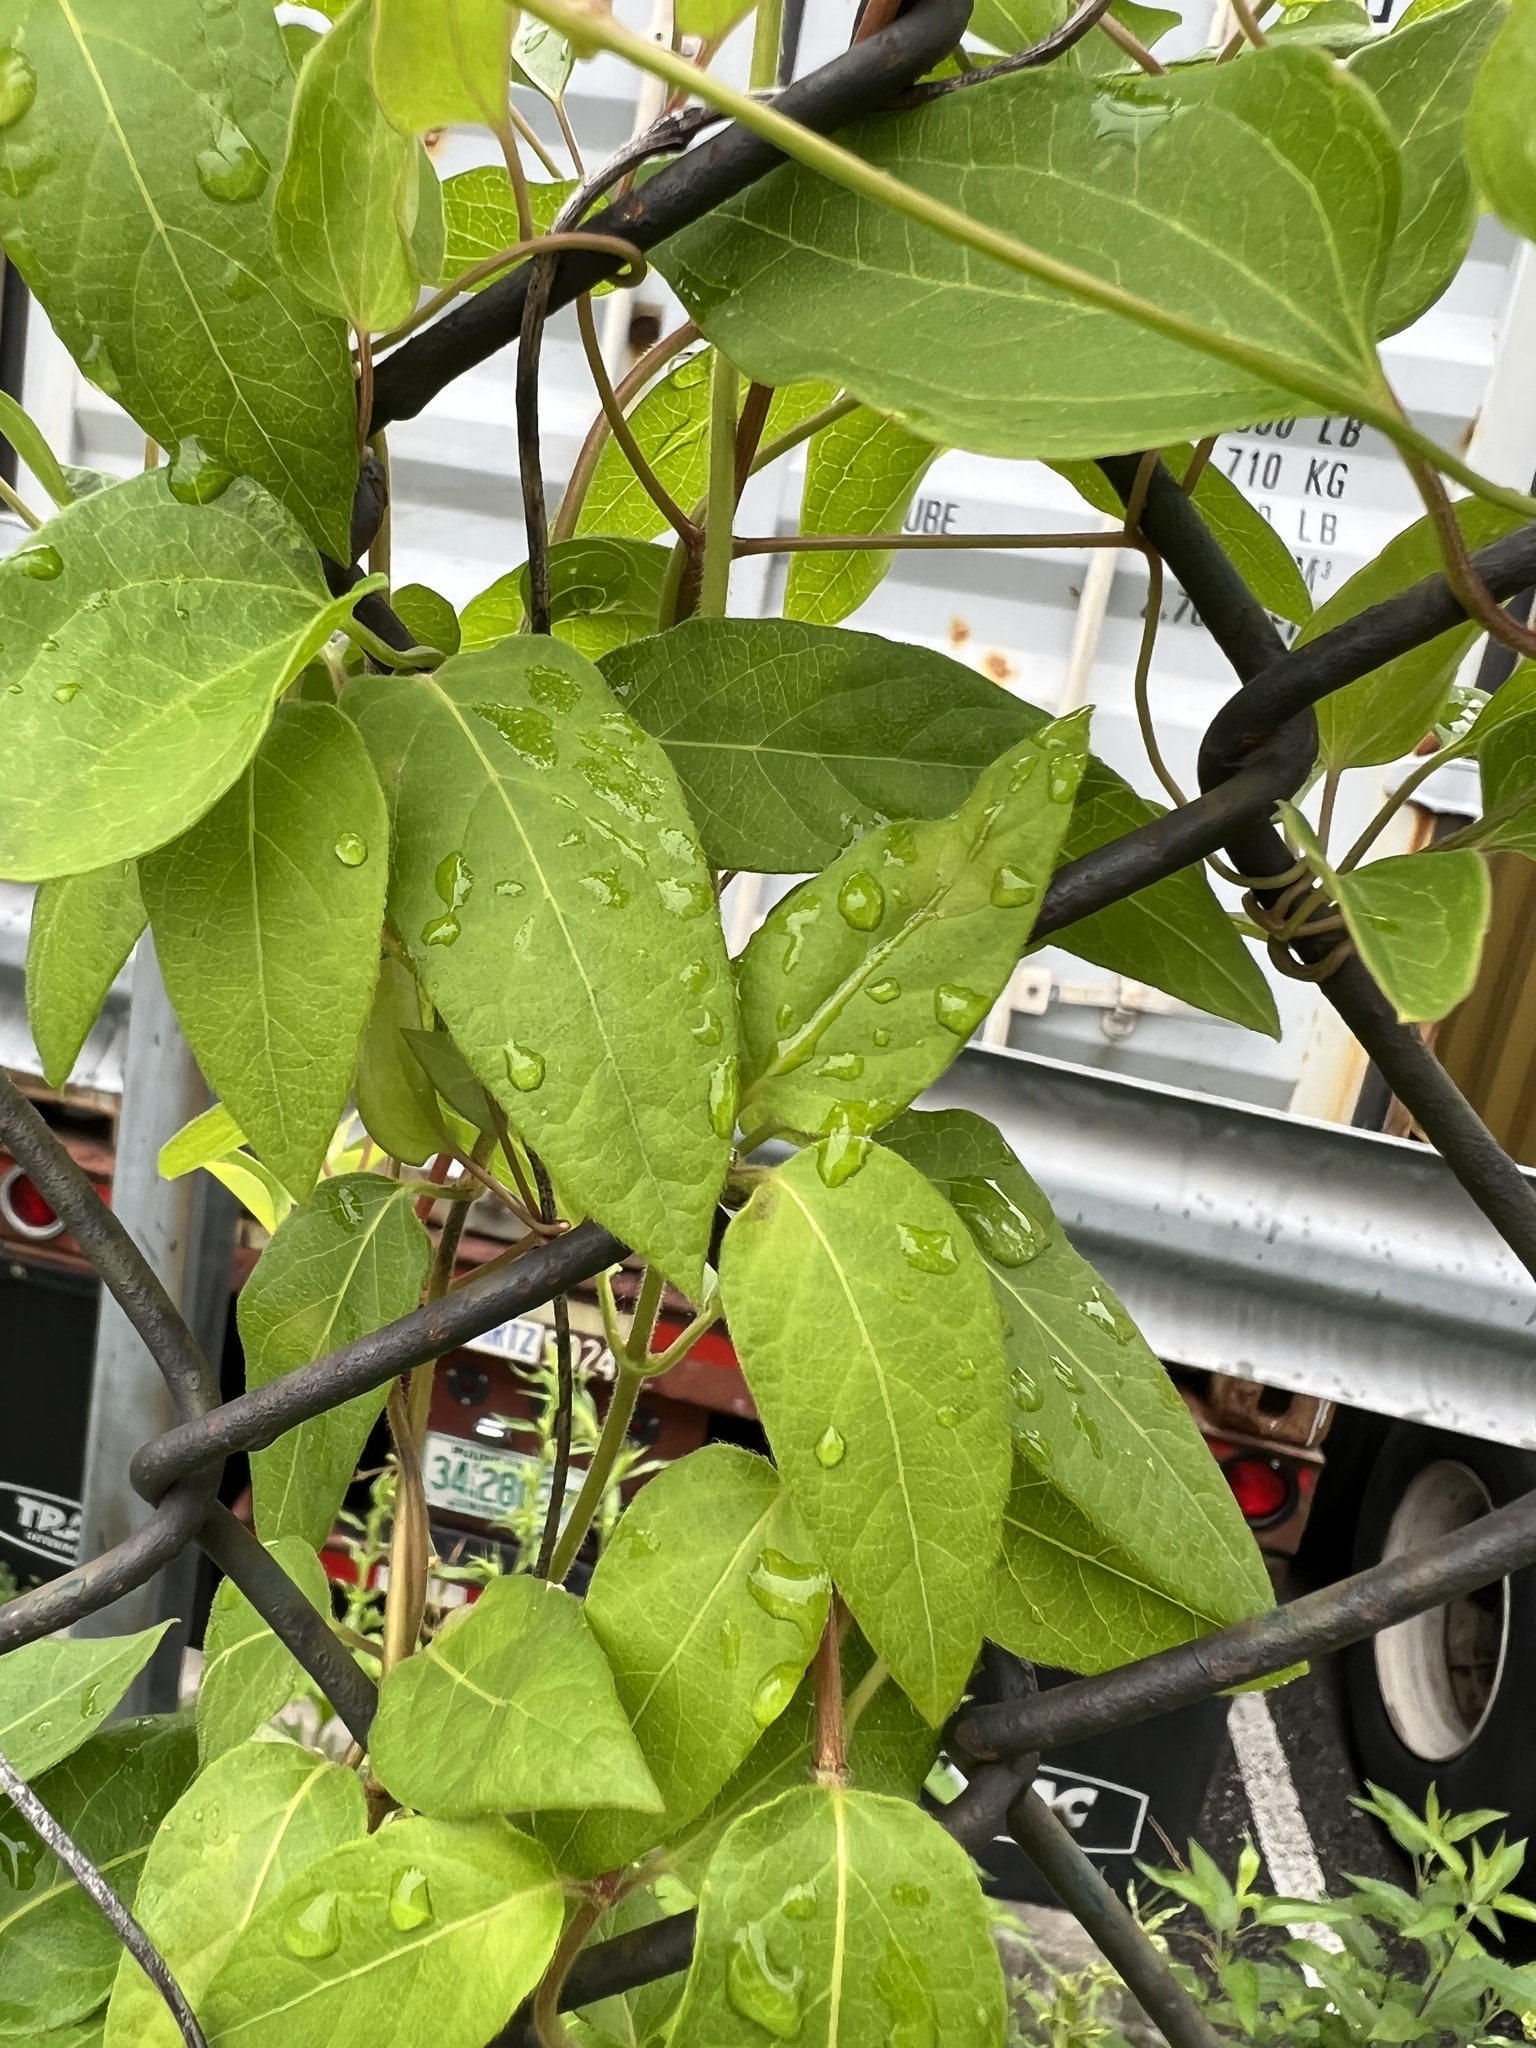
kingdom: Plantae
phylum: Tracheophyta
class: Magnoliopsida
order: Dipsacales
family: Caprifoliaceae
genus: Lonicera
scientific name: Lonicera japonica
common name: Japanese honeysuckle
